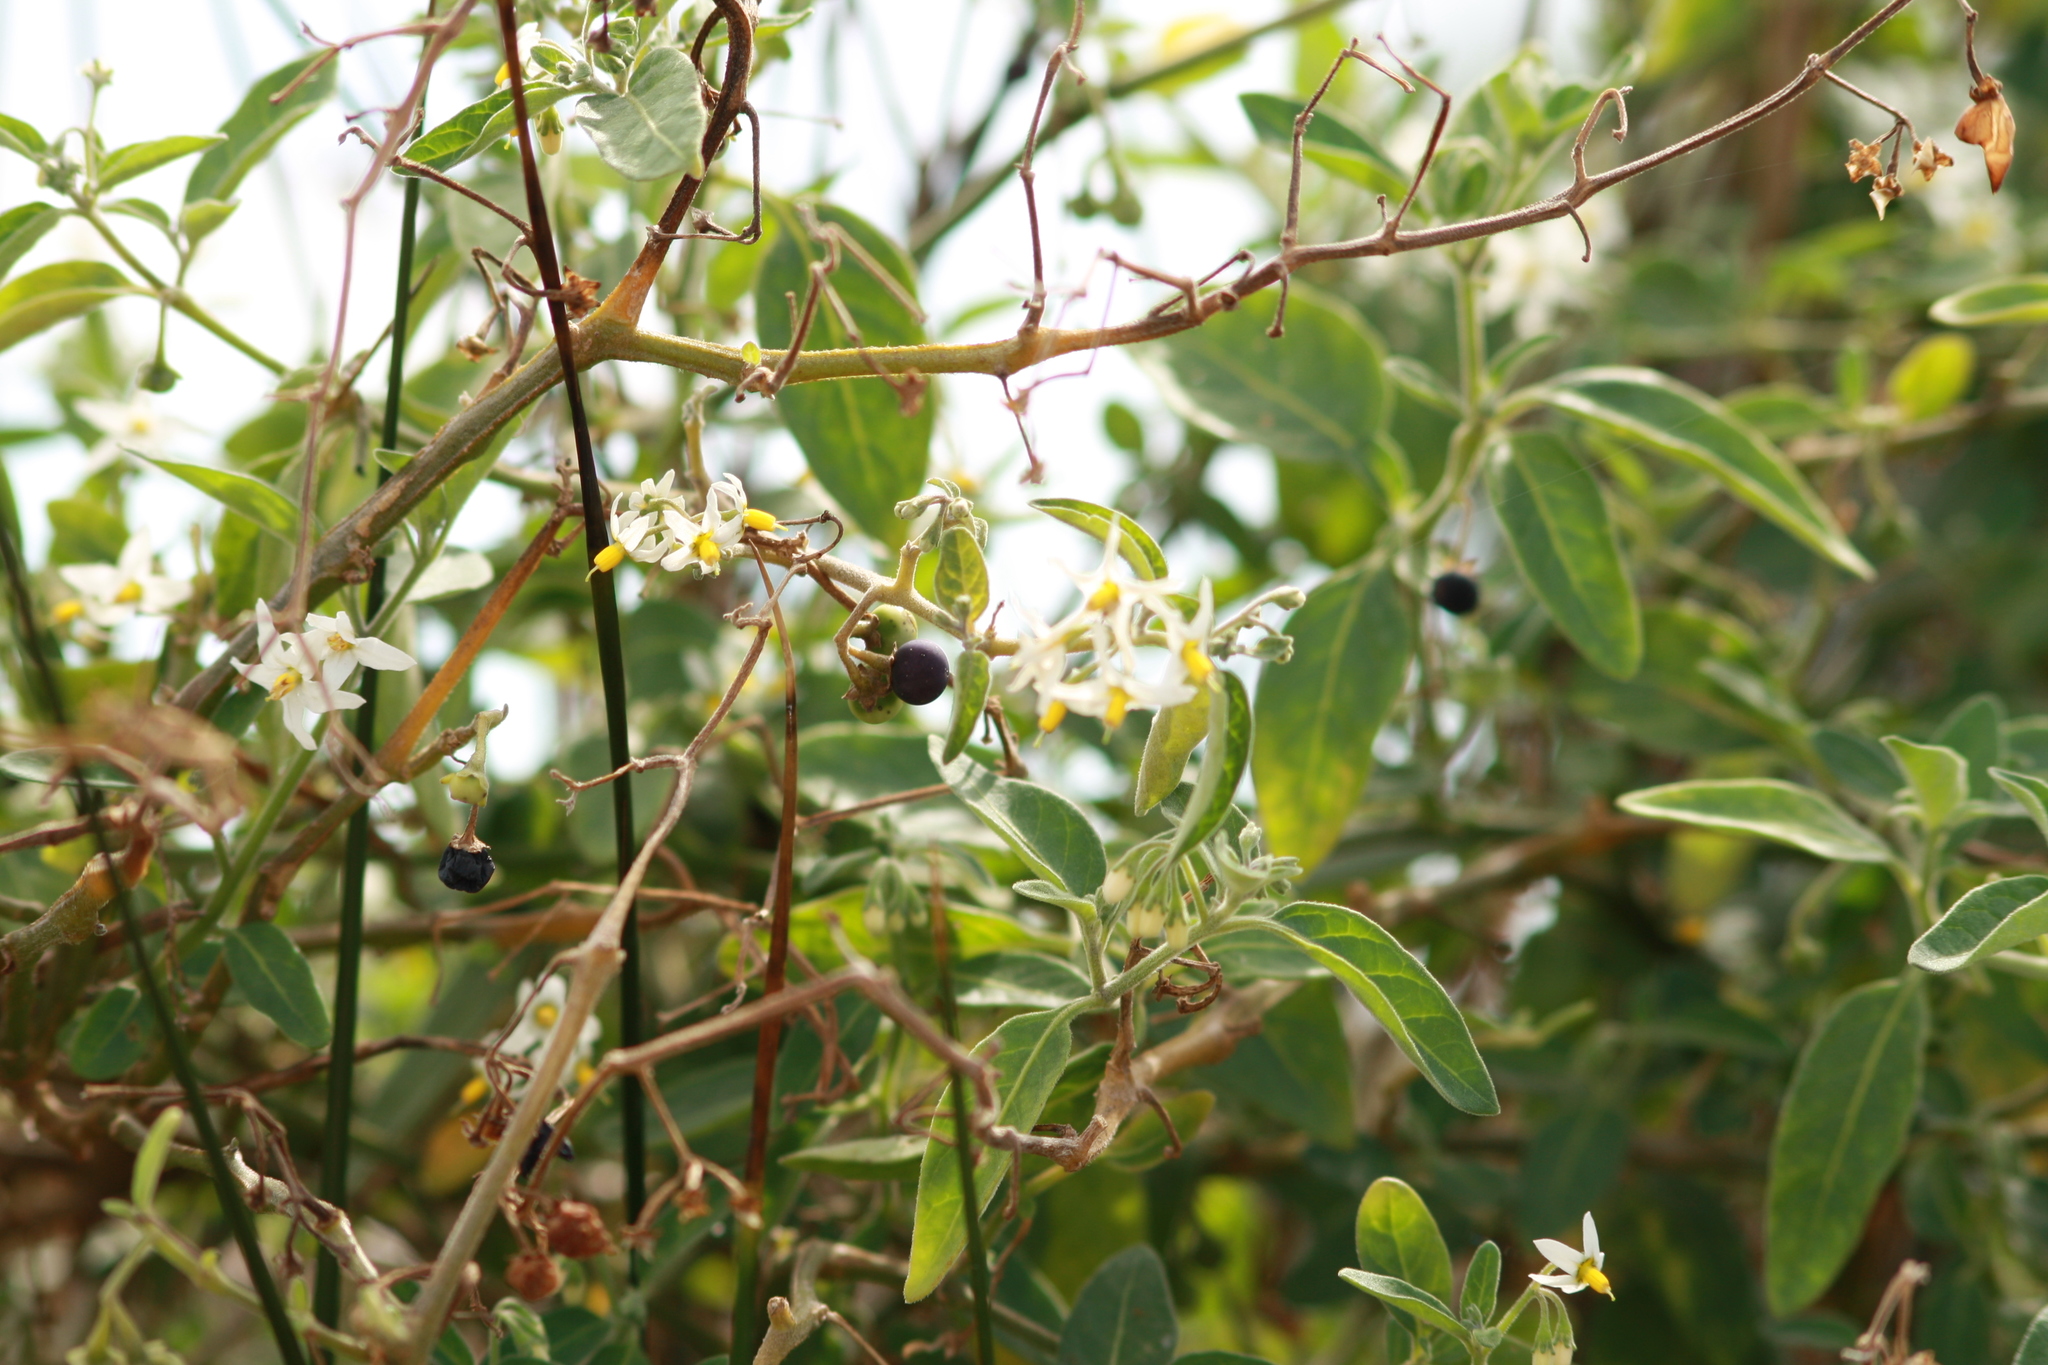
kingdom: Plantae
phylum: Tracheophyta
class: Magnoliopsida
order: Solanales
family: Solanaceae
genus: Solanum
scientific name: Solanum chenopodioides
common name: Tall nightshade
